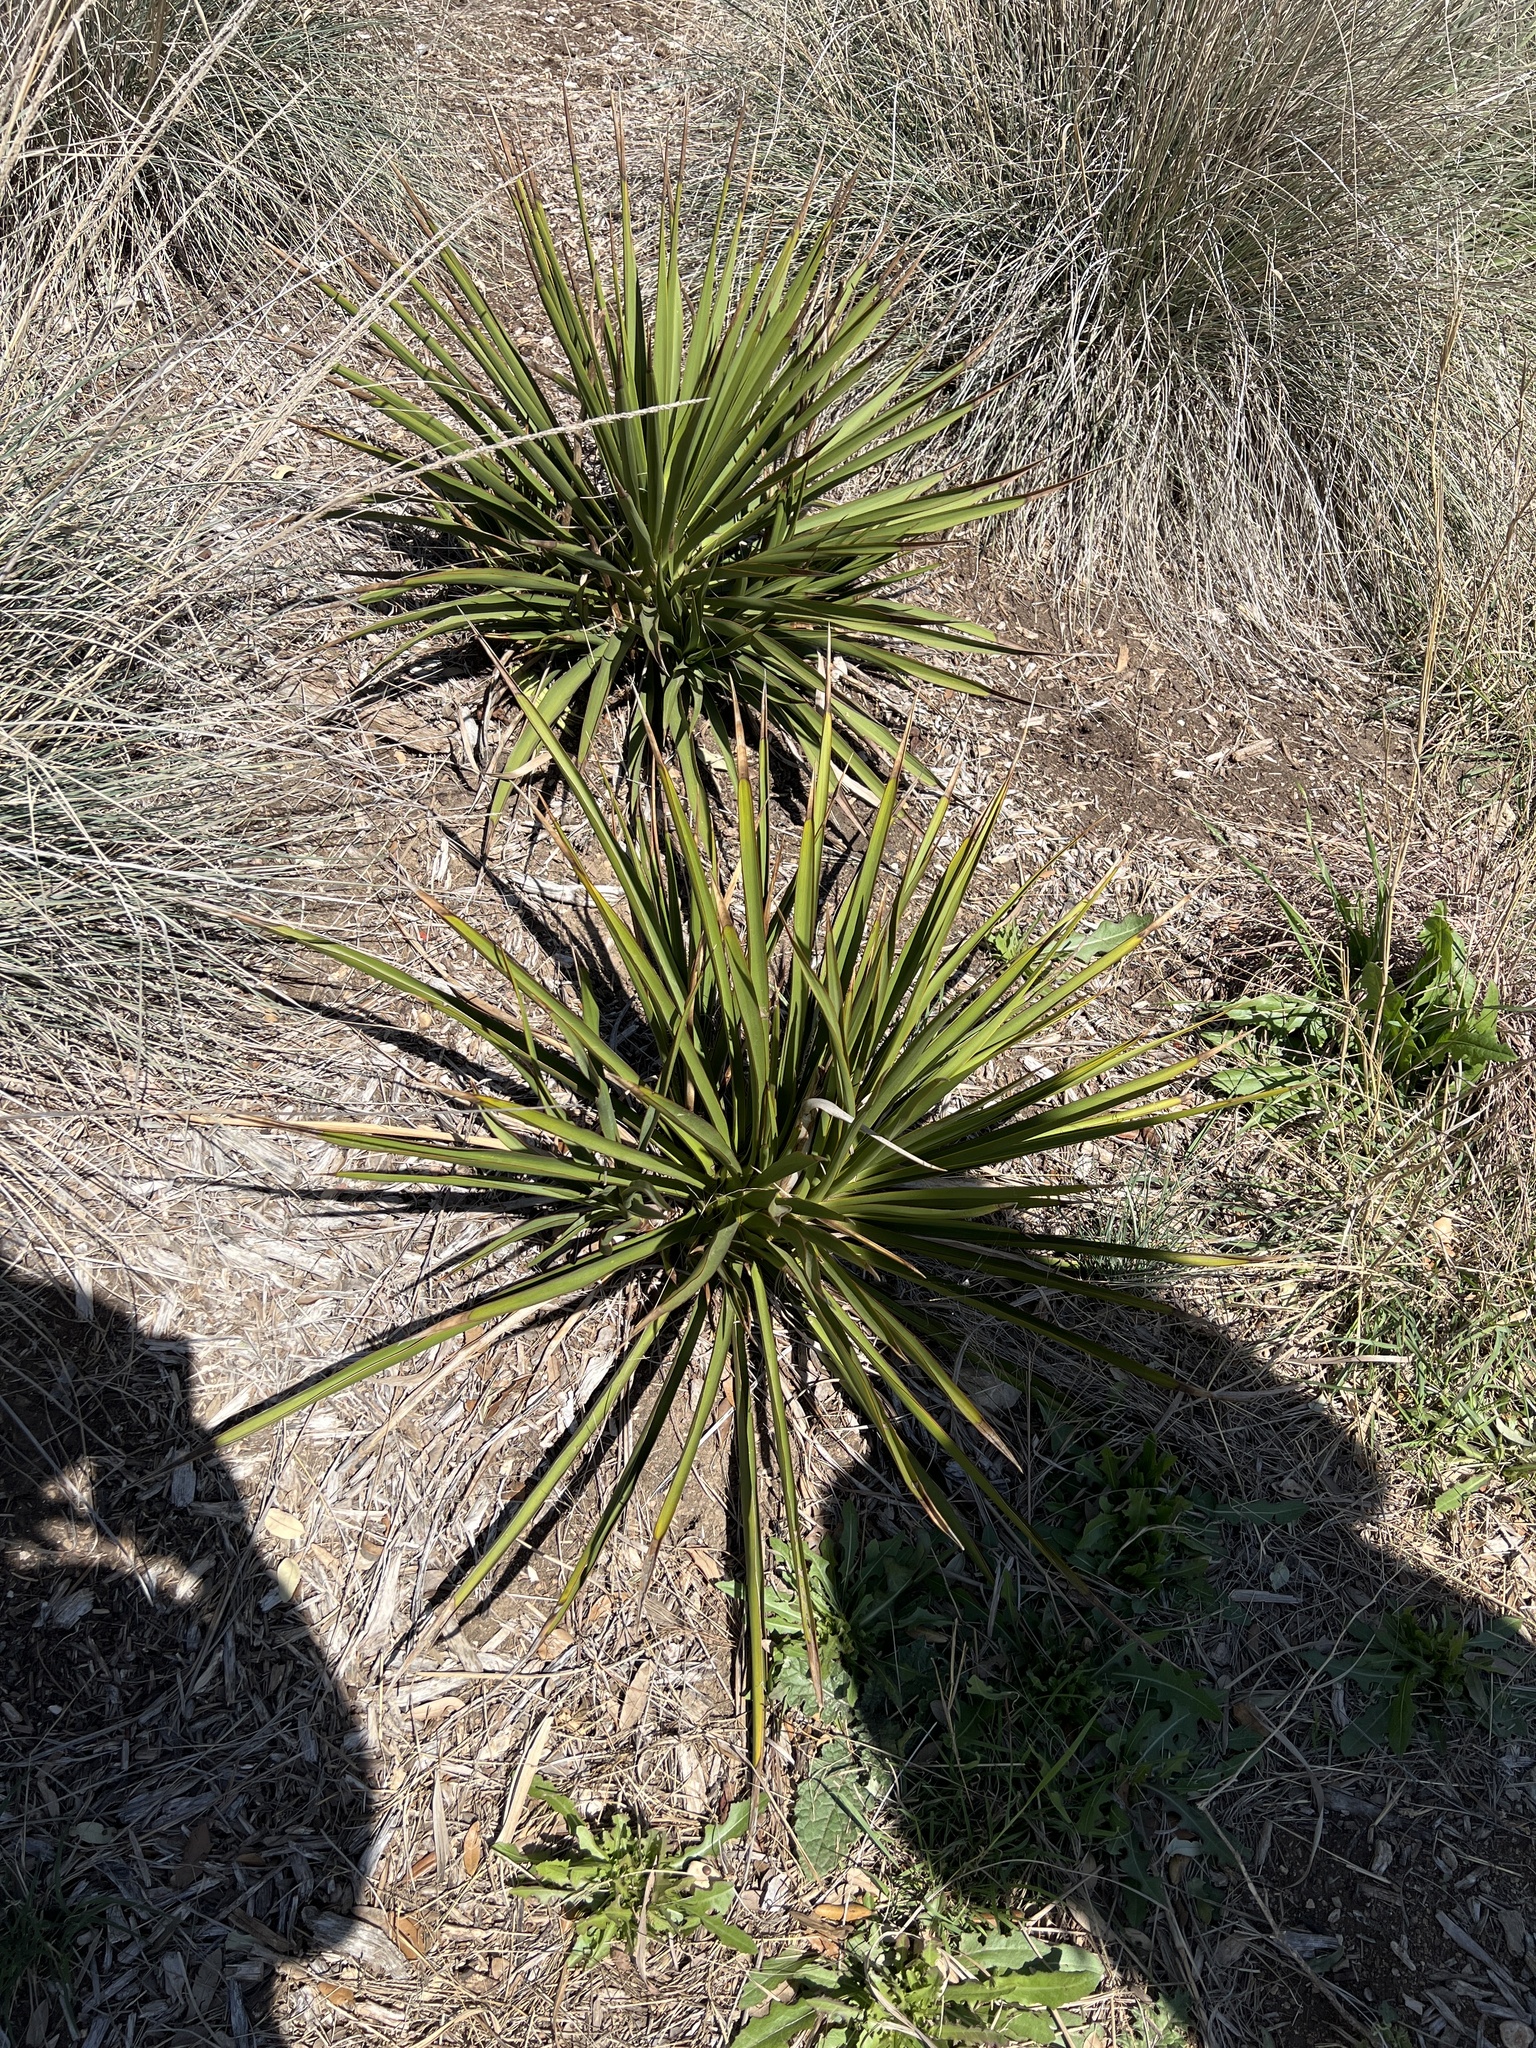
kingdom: Plantae
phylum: Tracheophyta
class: Liliopsida
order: Asparagales
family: Asparagaceae
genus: Yucca
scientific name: Yucca rupicola
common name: Twisted-leaf spanish-dagger
